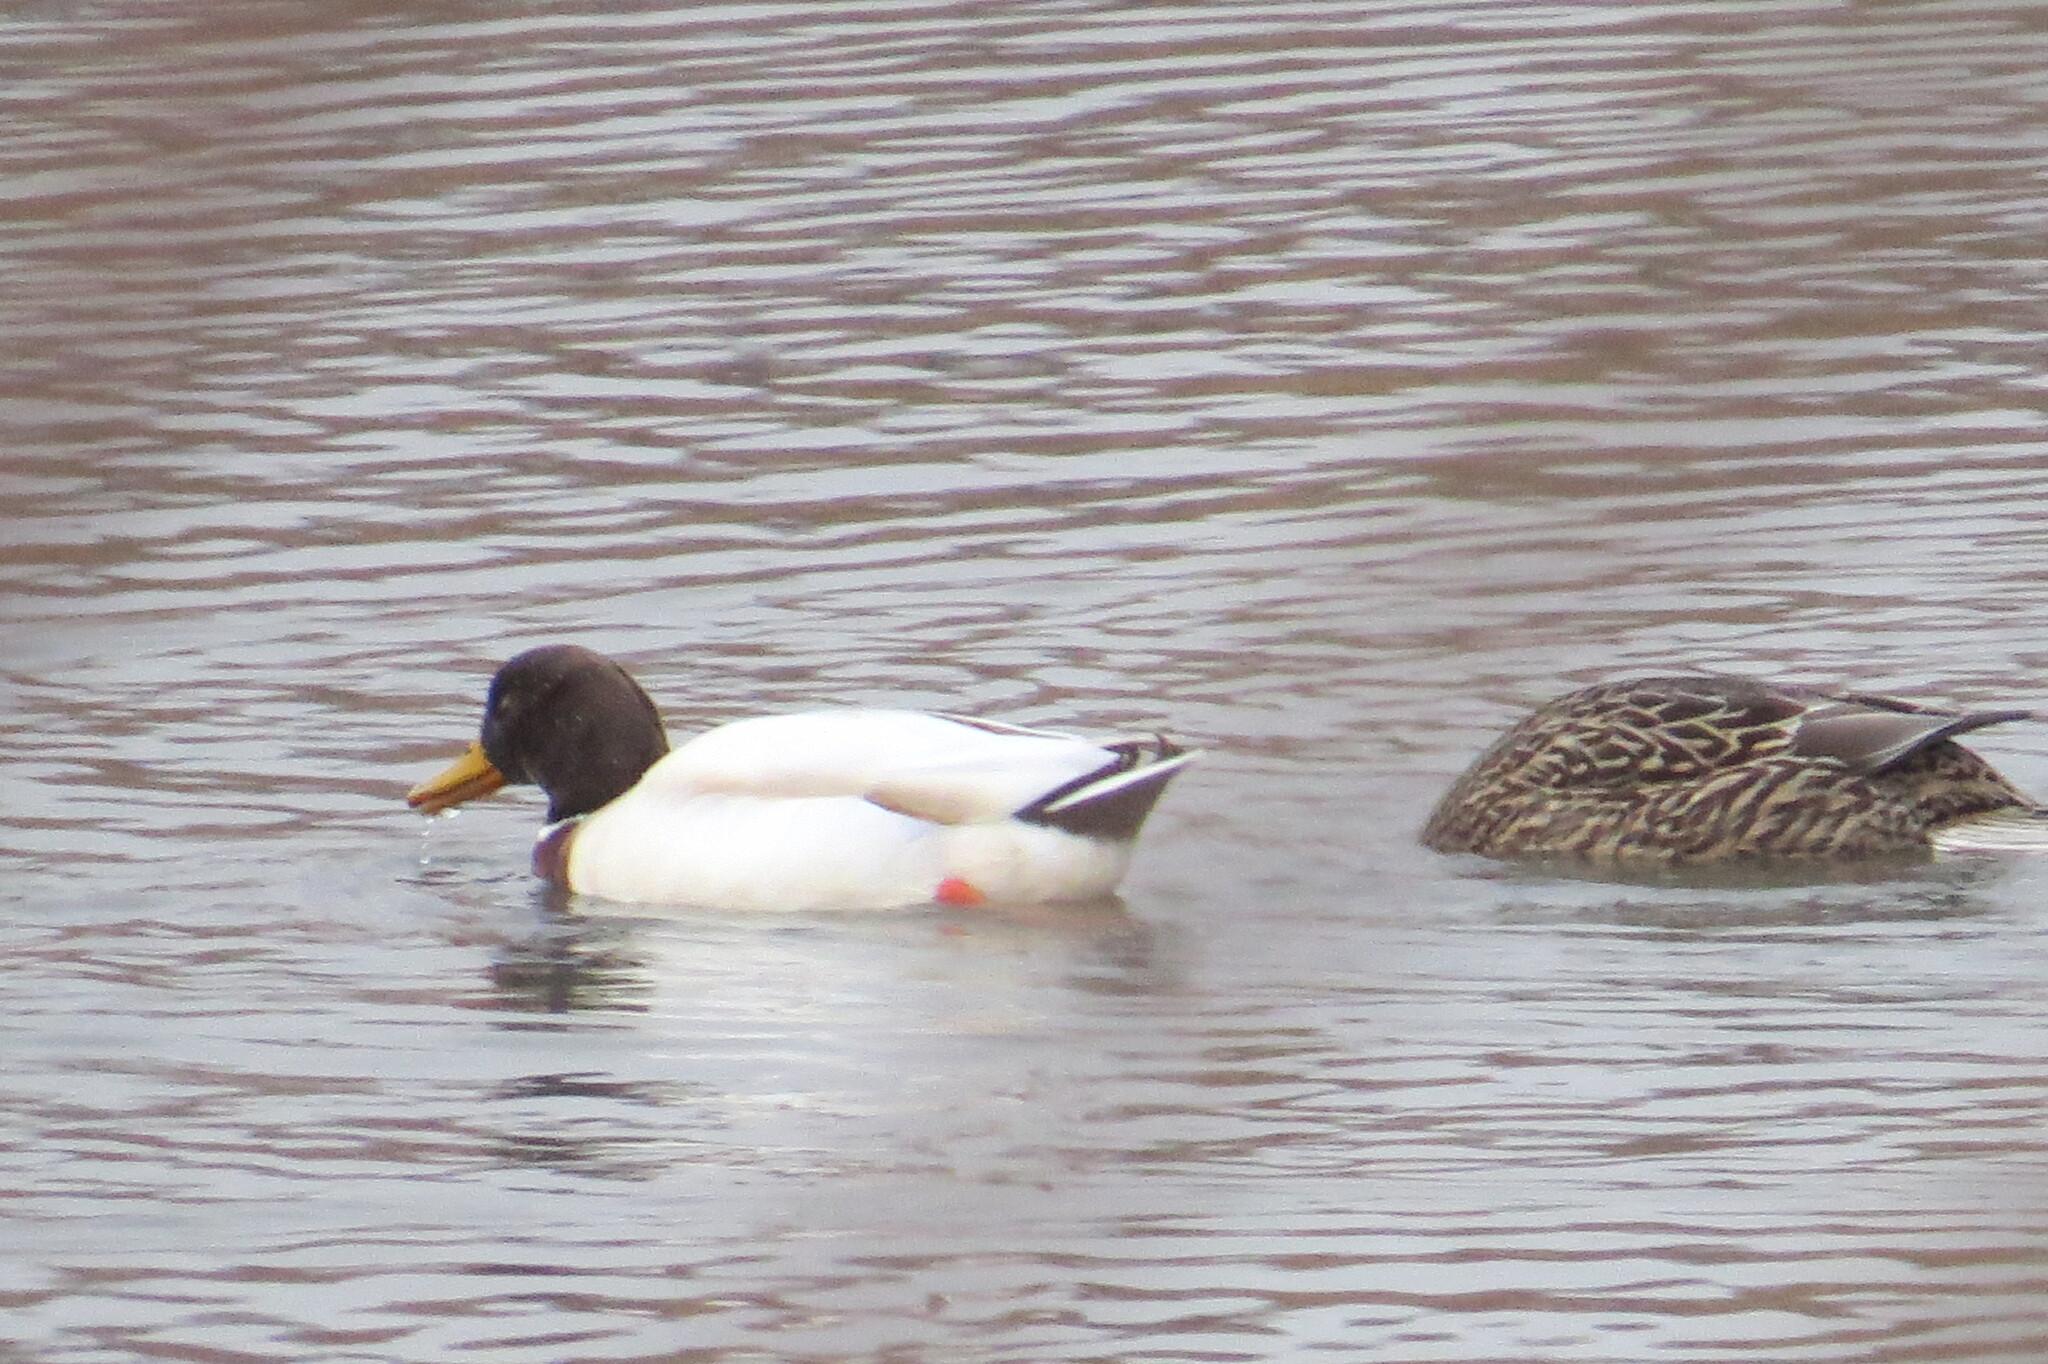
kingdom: Animalia
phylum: Chordata
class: Aves
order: Anseriformes
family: Anatidae
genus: Anas
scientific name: Anas platyrhynchos
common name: Mallard
